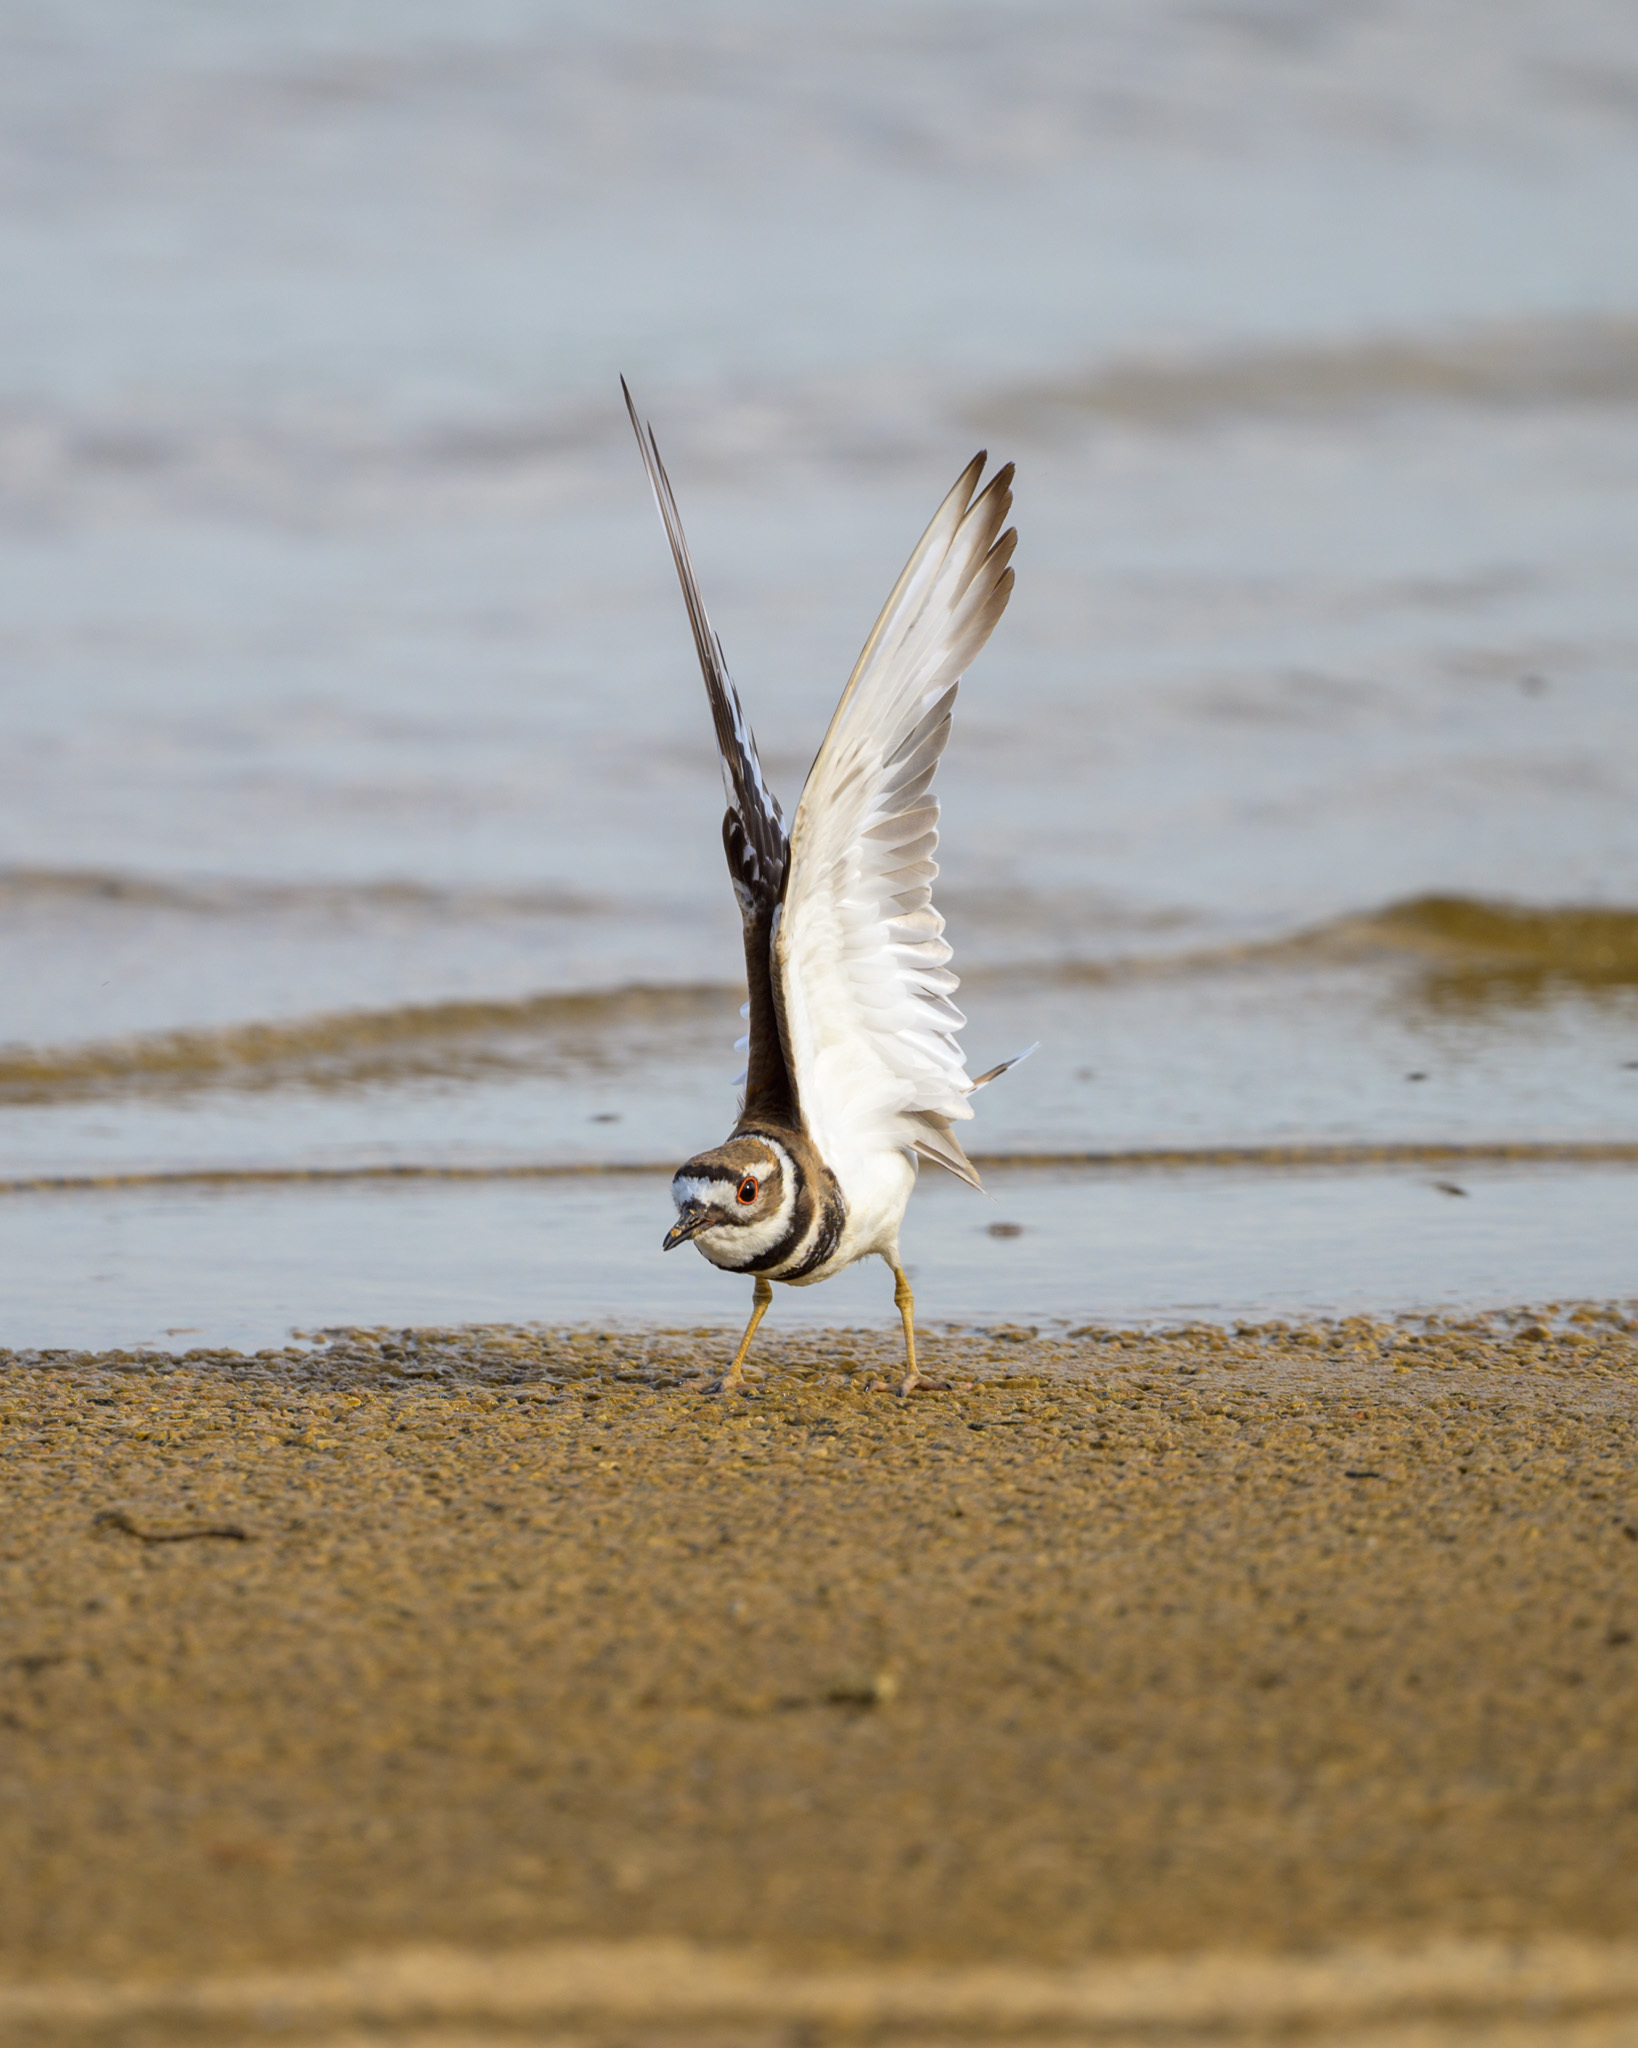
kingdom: Animalia
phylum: Chordata
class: Aves
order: Charadriiformes
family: Charadriidae
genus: Charadrius
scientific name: Charadrius vociferus
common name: Killdeer
